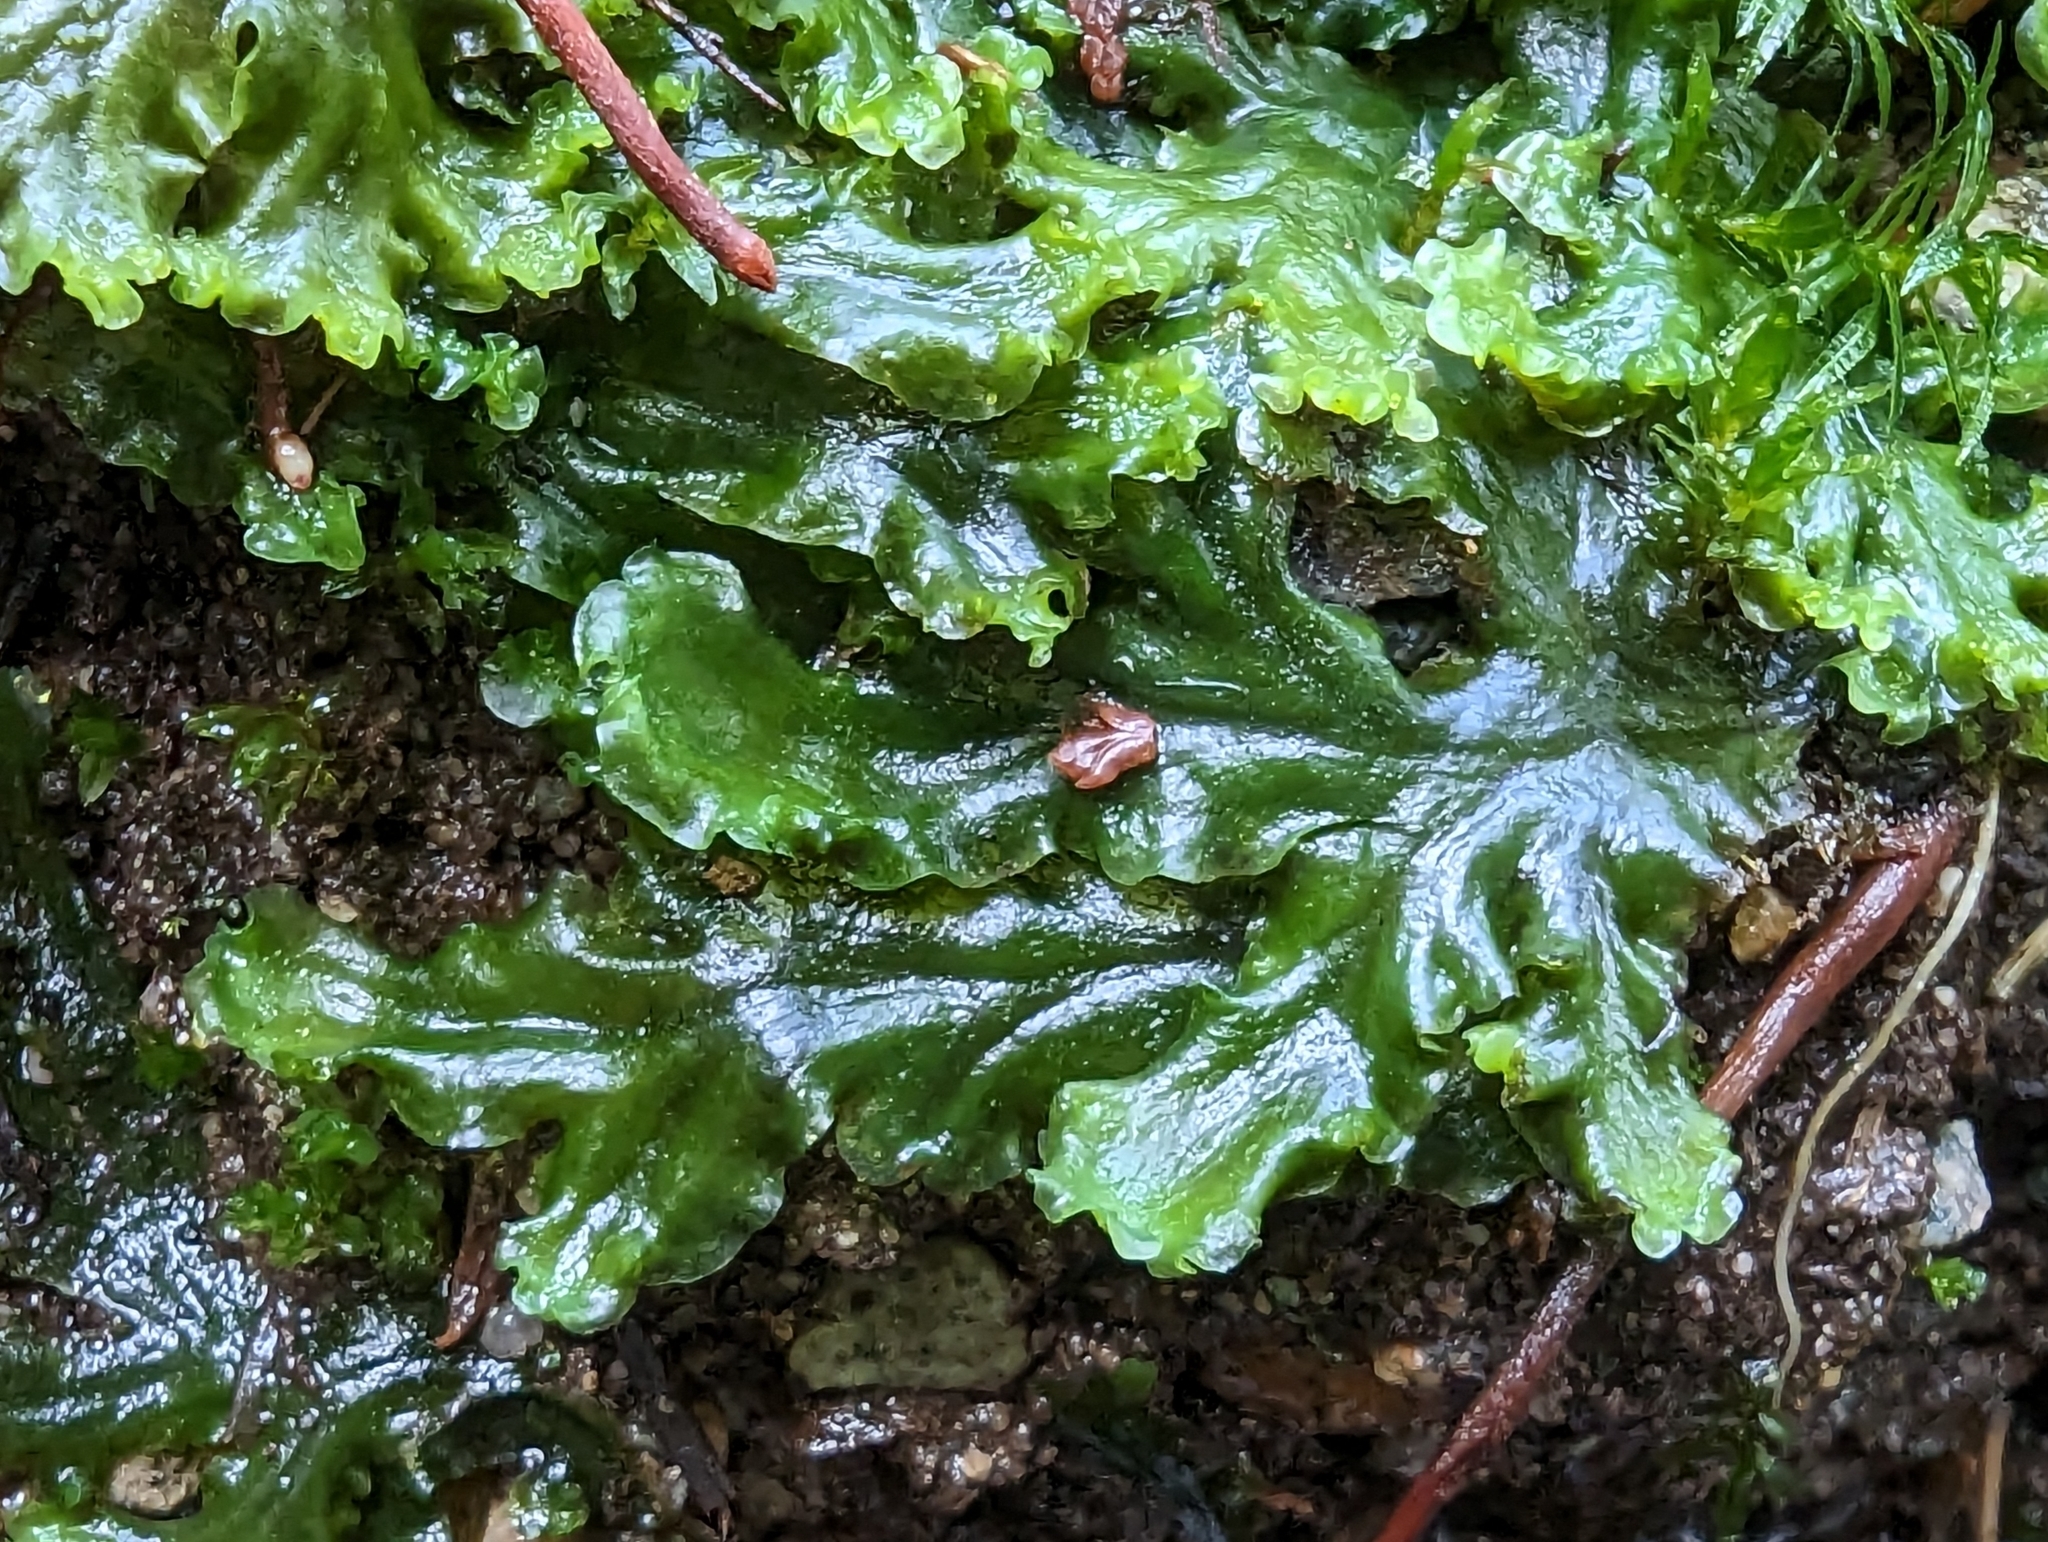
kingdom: Plantae
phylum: Marchantiophyta
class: Jungermanniopsida
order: Pelliales
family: Pelliaceae
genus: Pellia
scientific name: Pellia neesiana
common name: Nees  pellia
